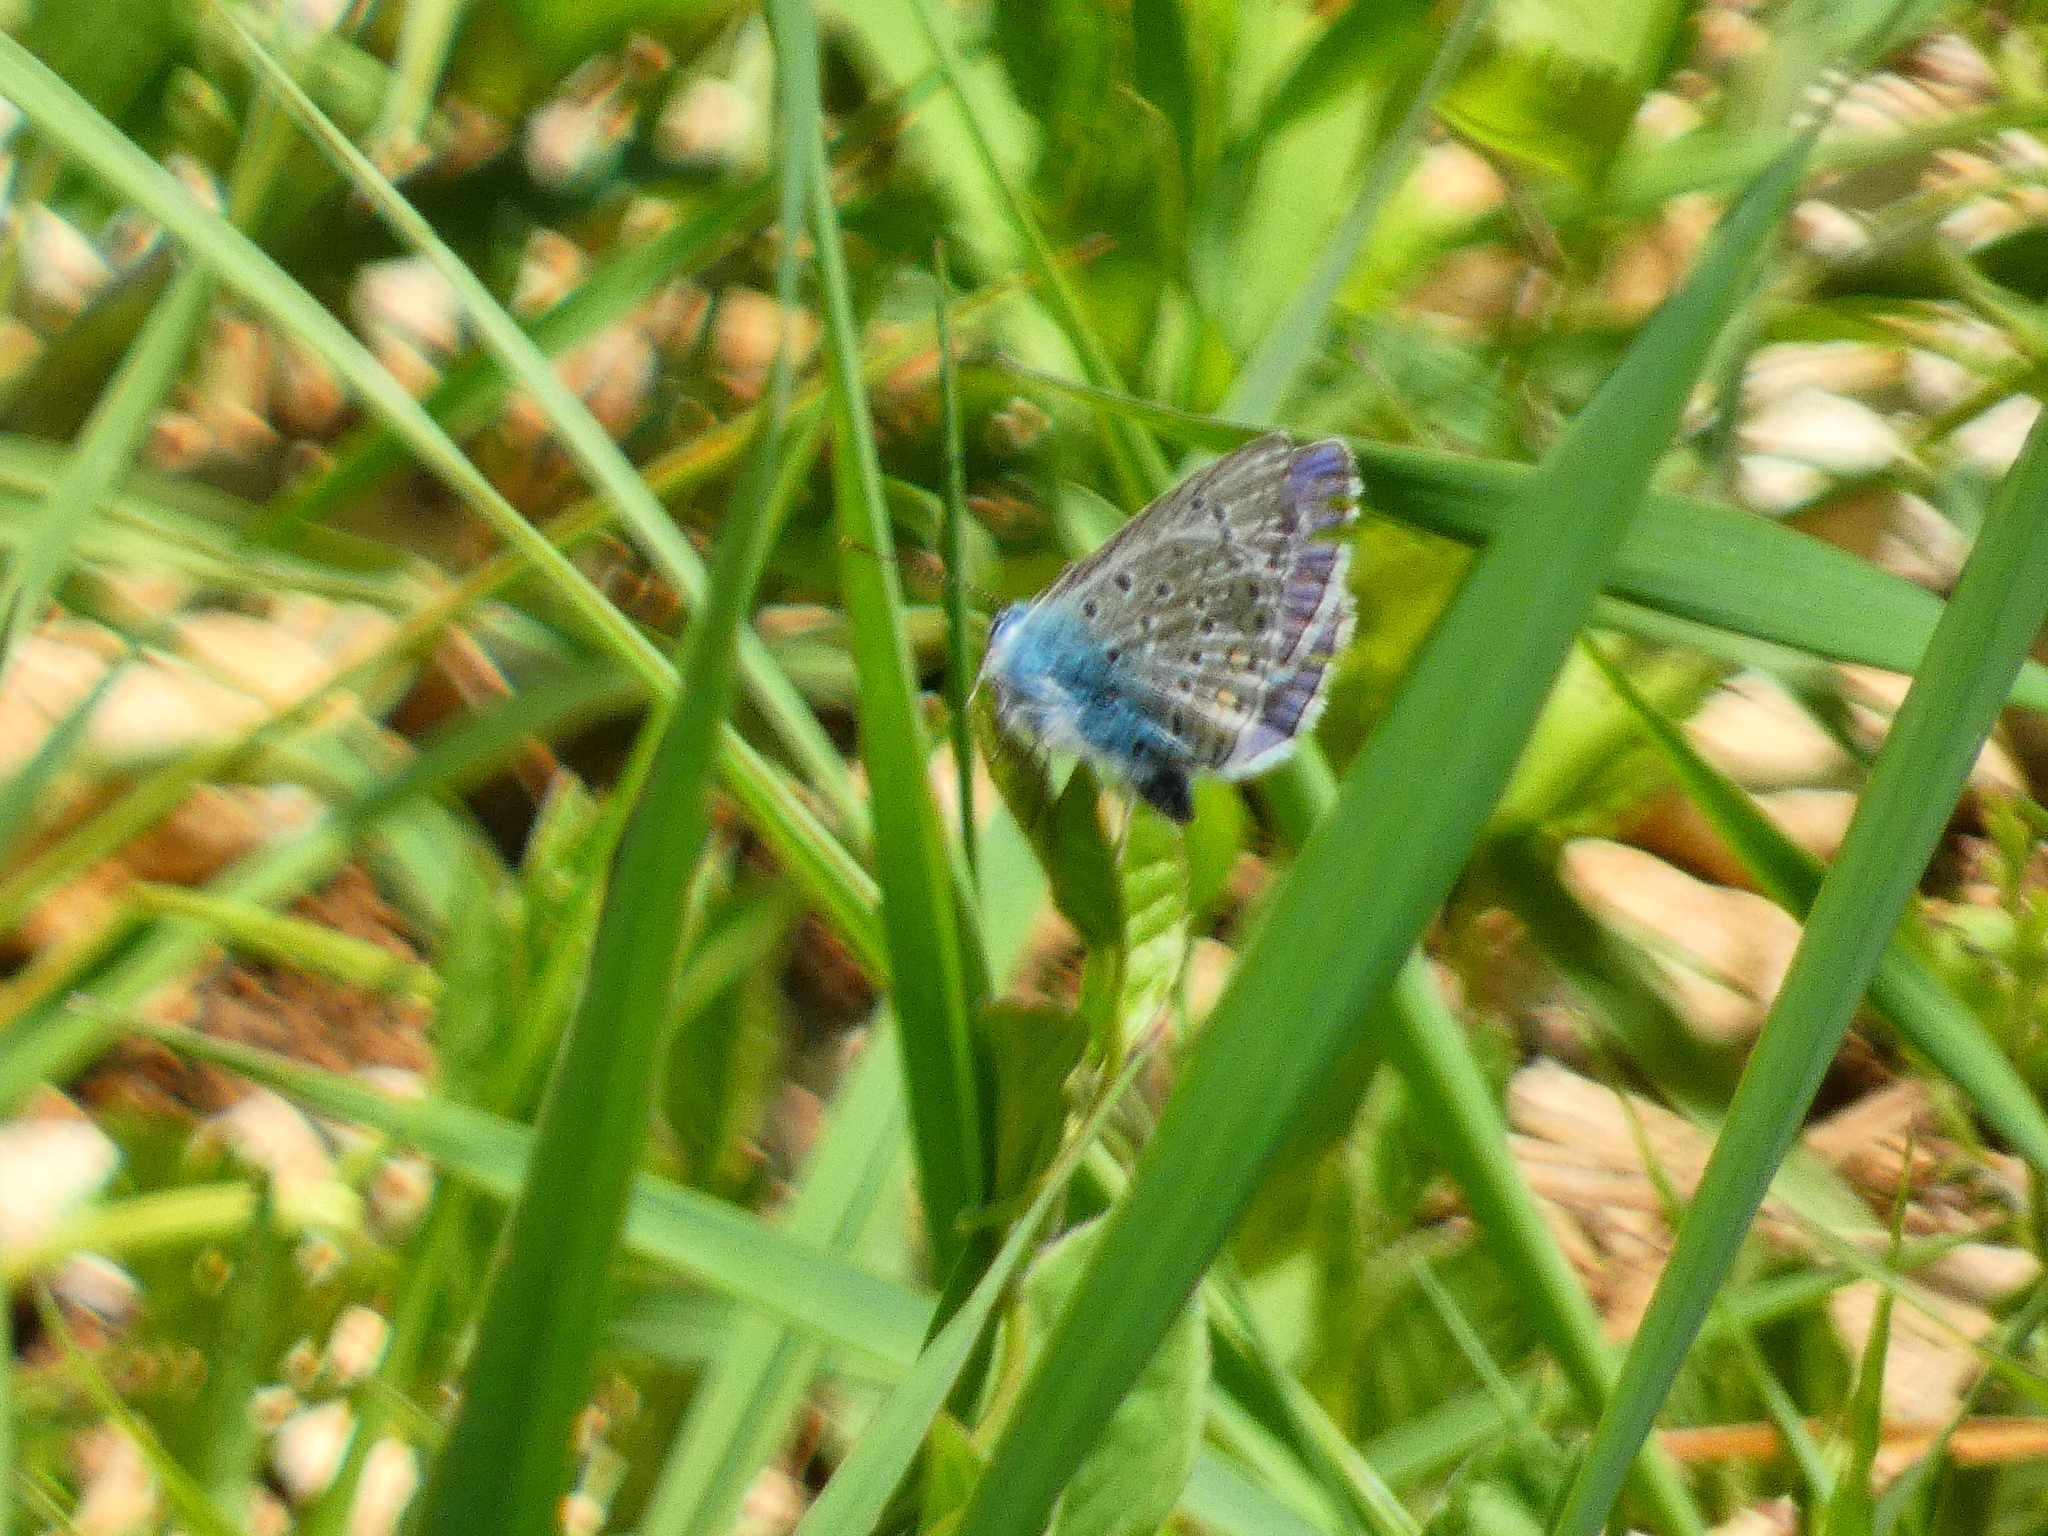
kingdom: Animalia
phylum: Arthropoda
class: Insecta
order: Lepidoptera
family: Lycaenidae
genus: Polyommatus
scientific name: Polyommatus icarus
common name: Common blue
